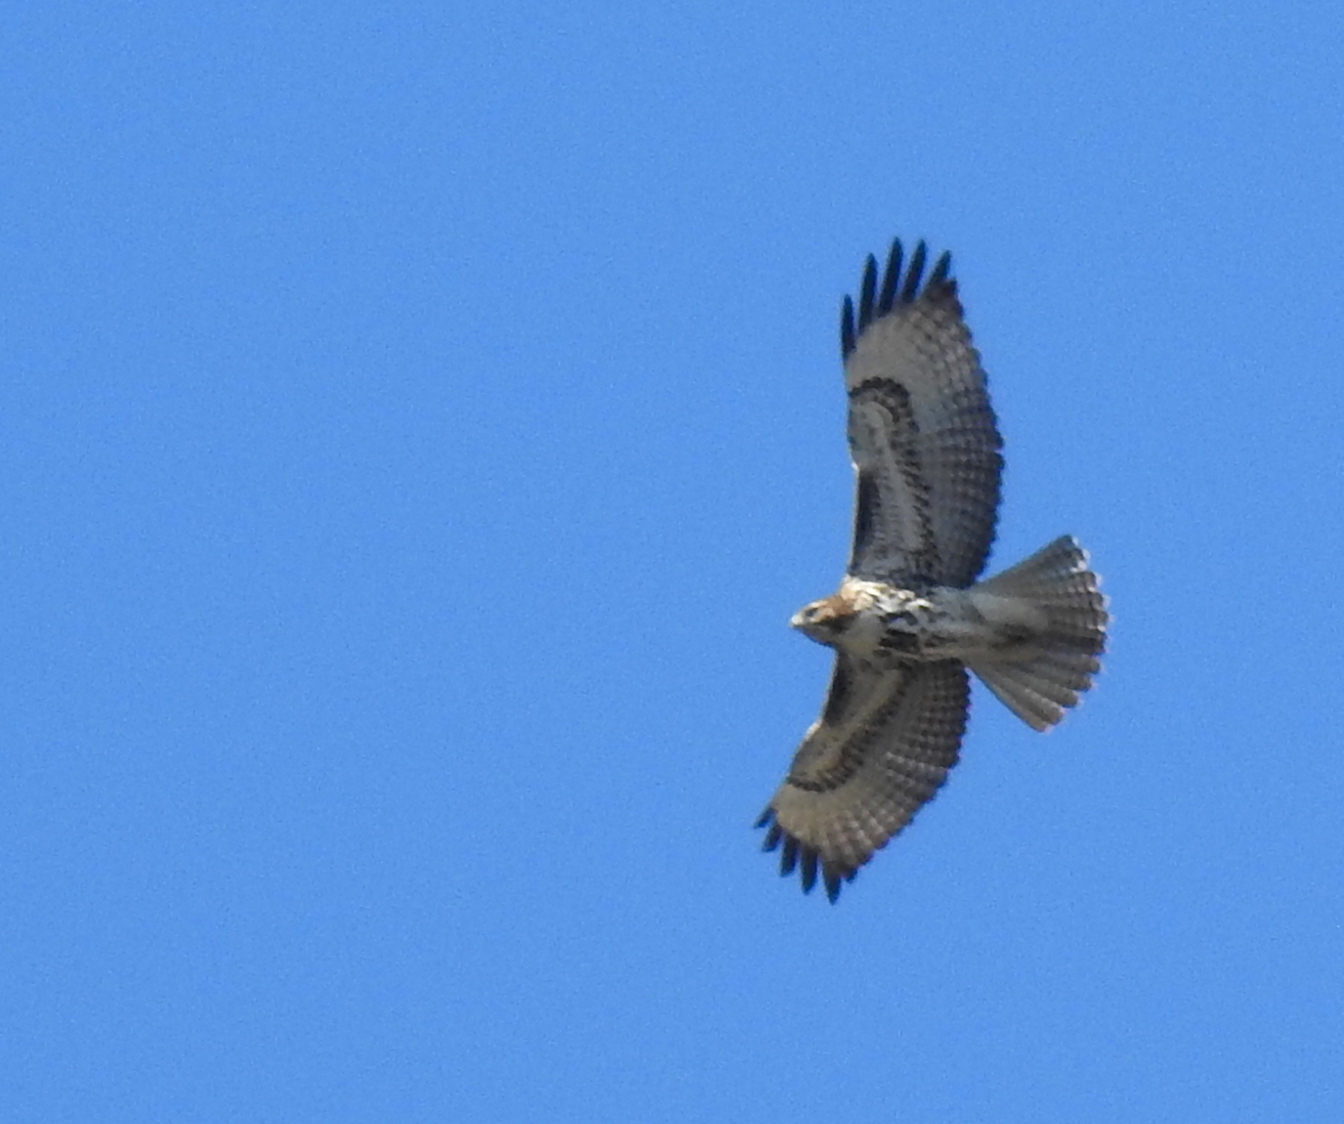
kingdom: Animalia
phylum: Chordata
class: Aves
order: Accipitriformes
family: Accipitridae
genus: Buteo
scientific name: Buteo jamaicensis
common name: Red-tailed hawk
